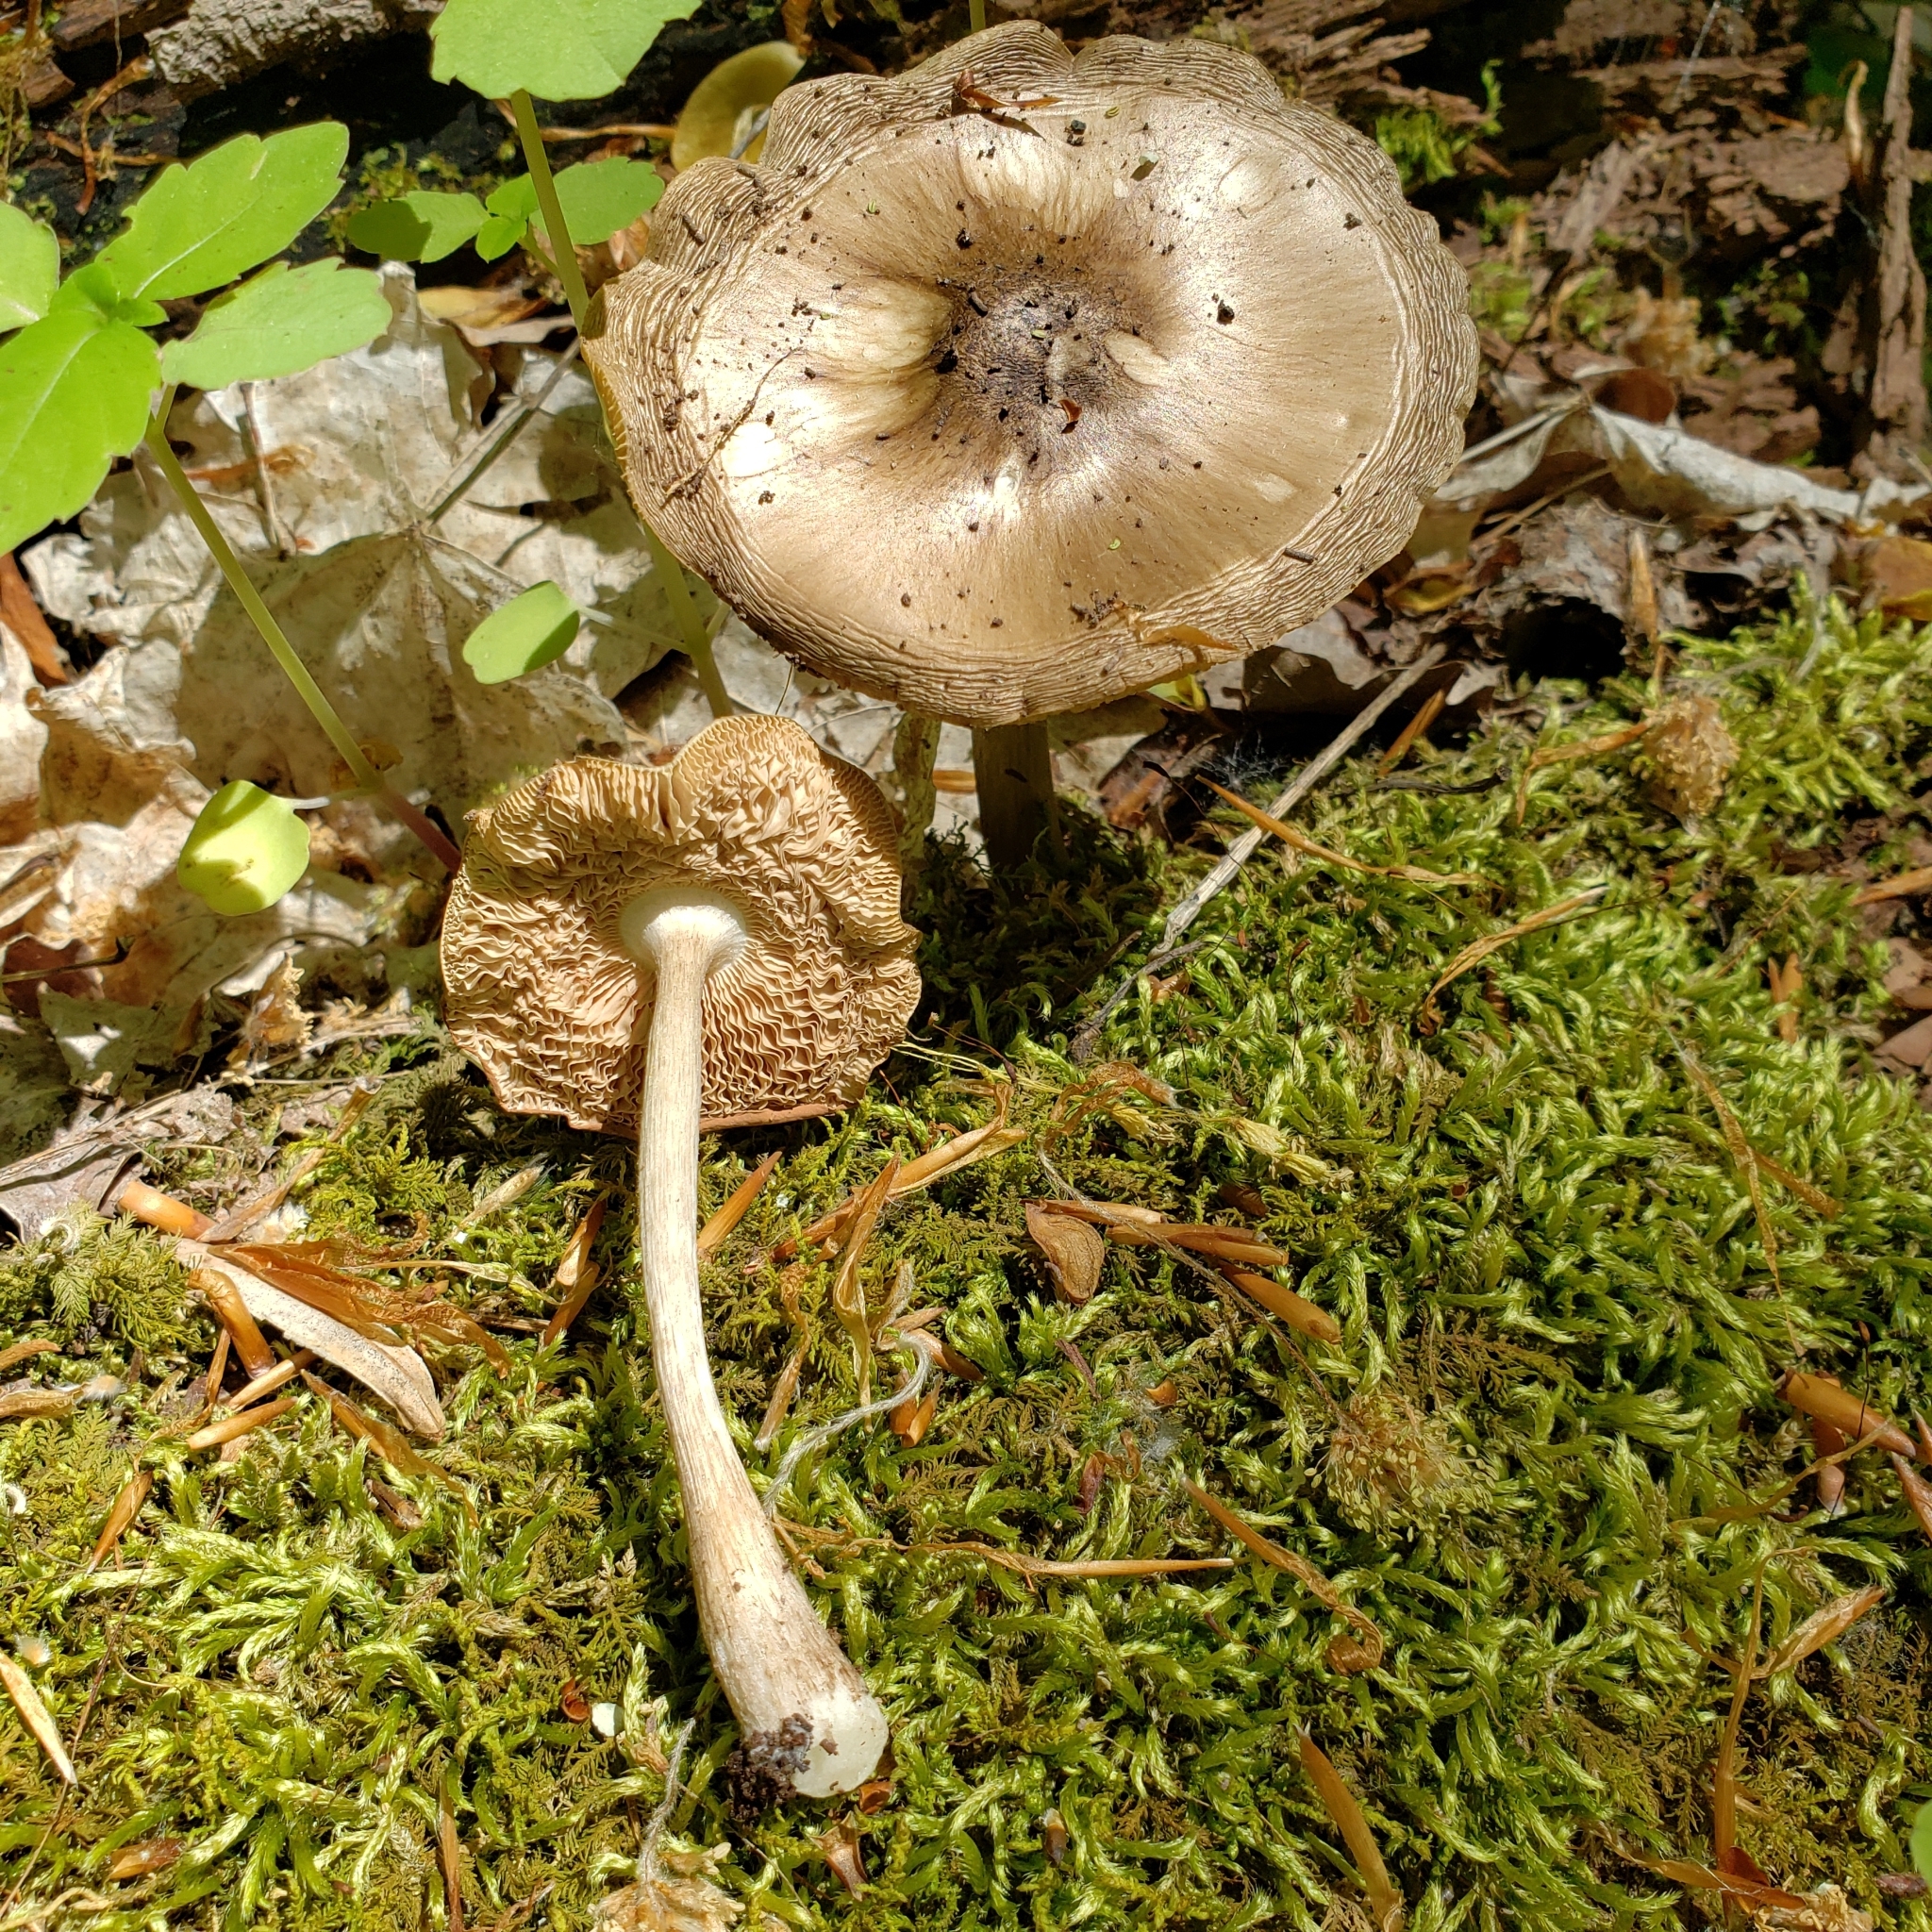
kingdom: Fungi
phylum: Basidiomycota
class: Agaricomycetes
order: Agaricales
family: Pluteaceae
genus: Pluteus
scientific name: Pluteus cervinus
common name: Deer shield
